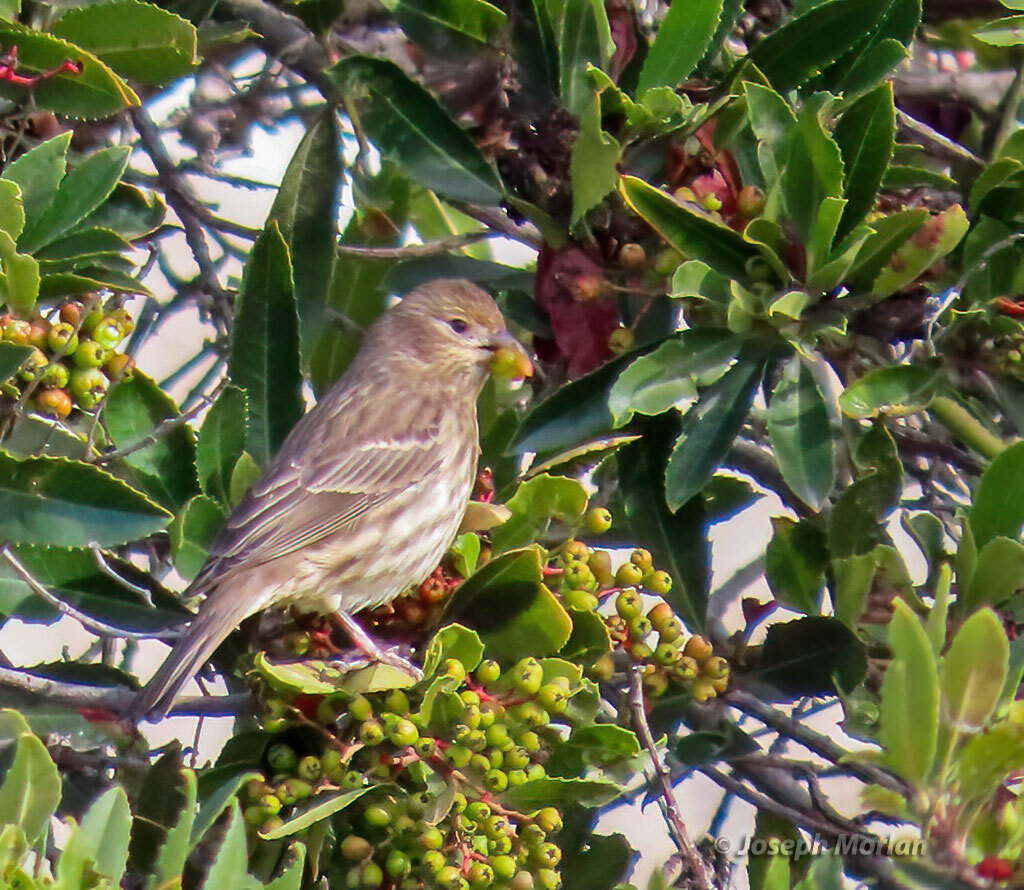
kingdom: Animalia
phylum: Chordata
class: Aves
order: Passeriformes
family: Fringillidae
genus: Haemorhous
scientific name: Haemorhous mexicanus
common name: House finch
